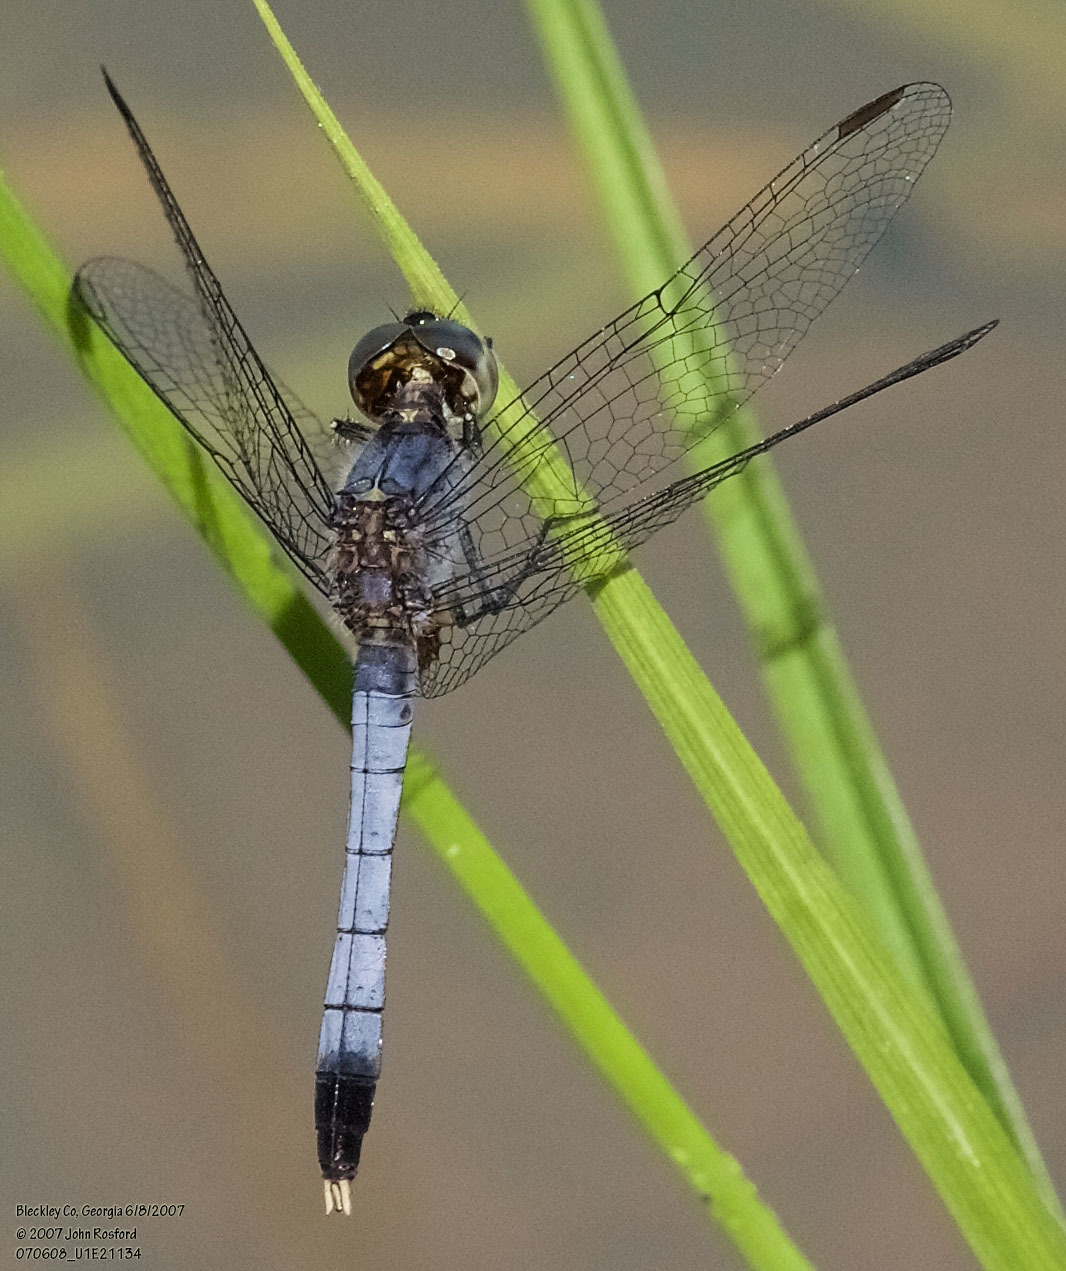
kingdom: Animalia
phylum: Arthropoda
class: Insecta
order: Odonata
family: Libellulidae
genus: Erythrodiplax
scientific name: Erythrodiplax minuscula
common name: Little blue dragonlet
